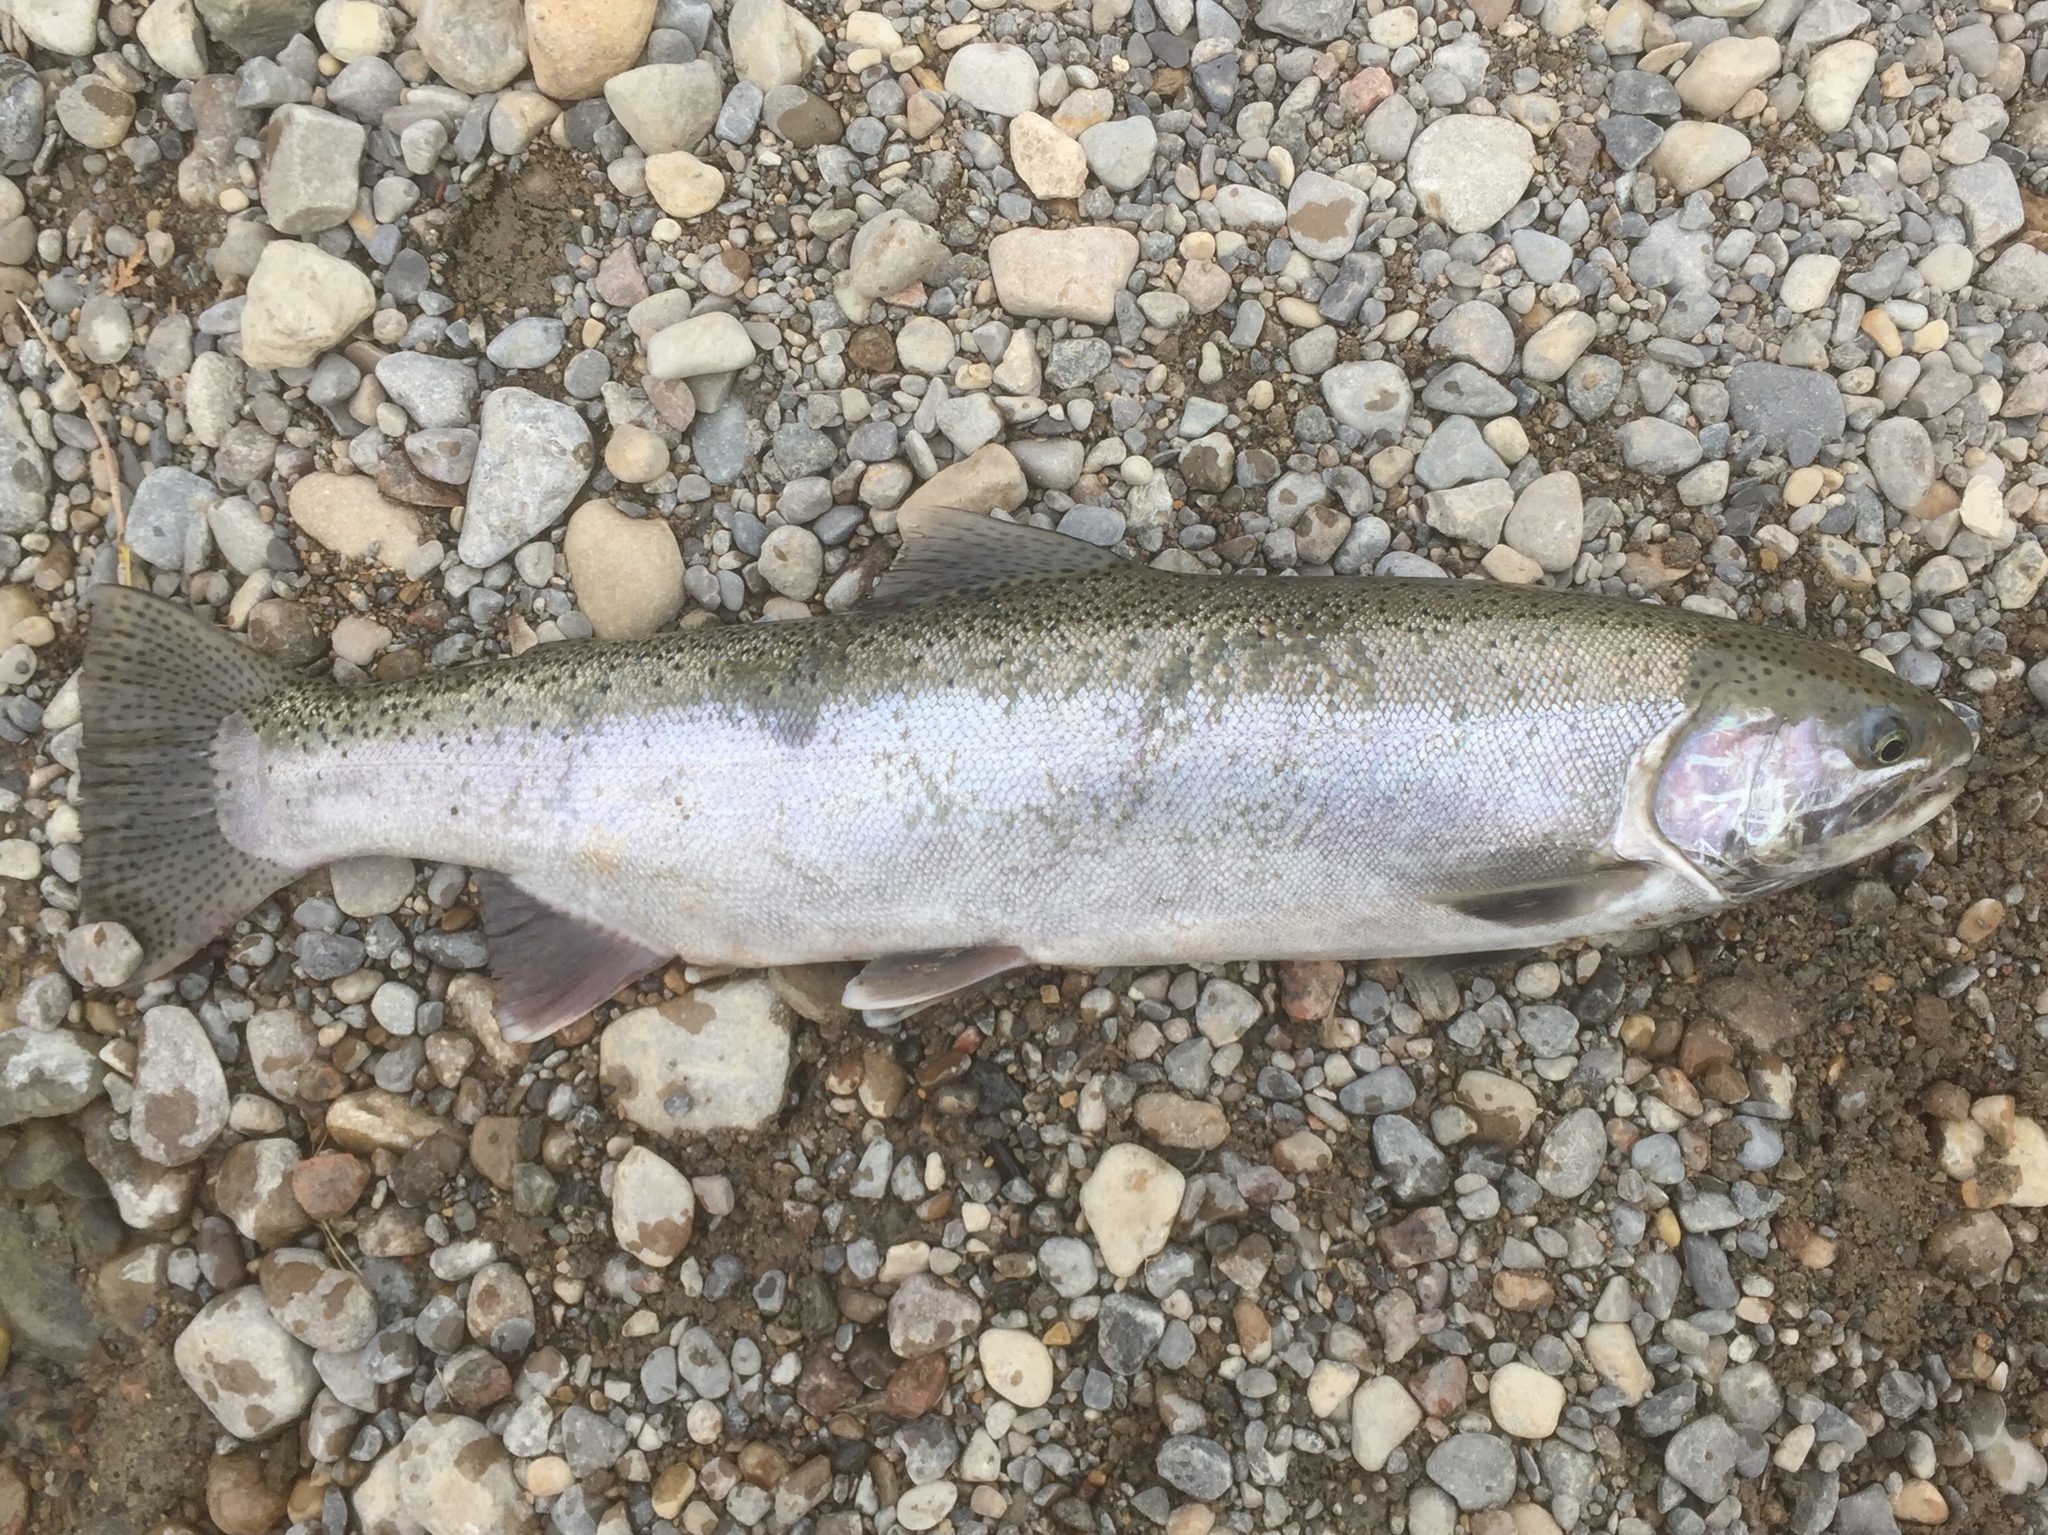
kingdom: Animalia
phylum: Chordata
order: Salmoniformes
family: Salmonidae
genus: Oncorhynchus
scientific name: Oncorhynchus mykiss
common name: Rainbow trout
